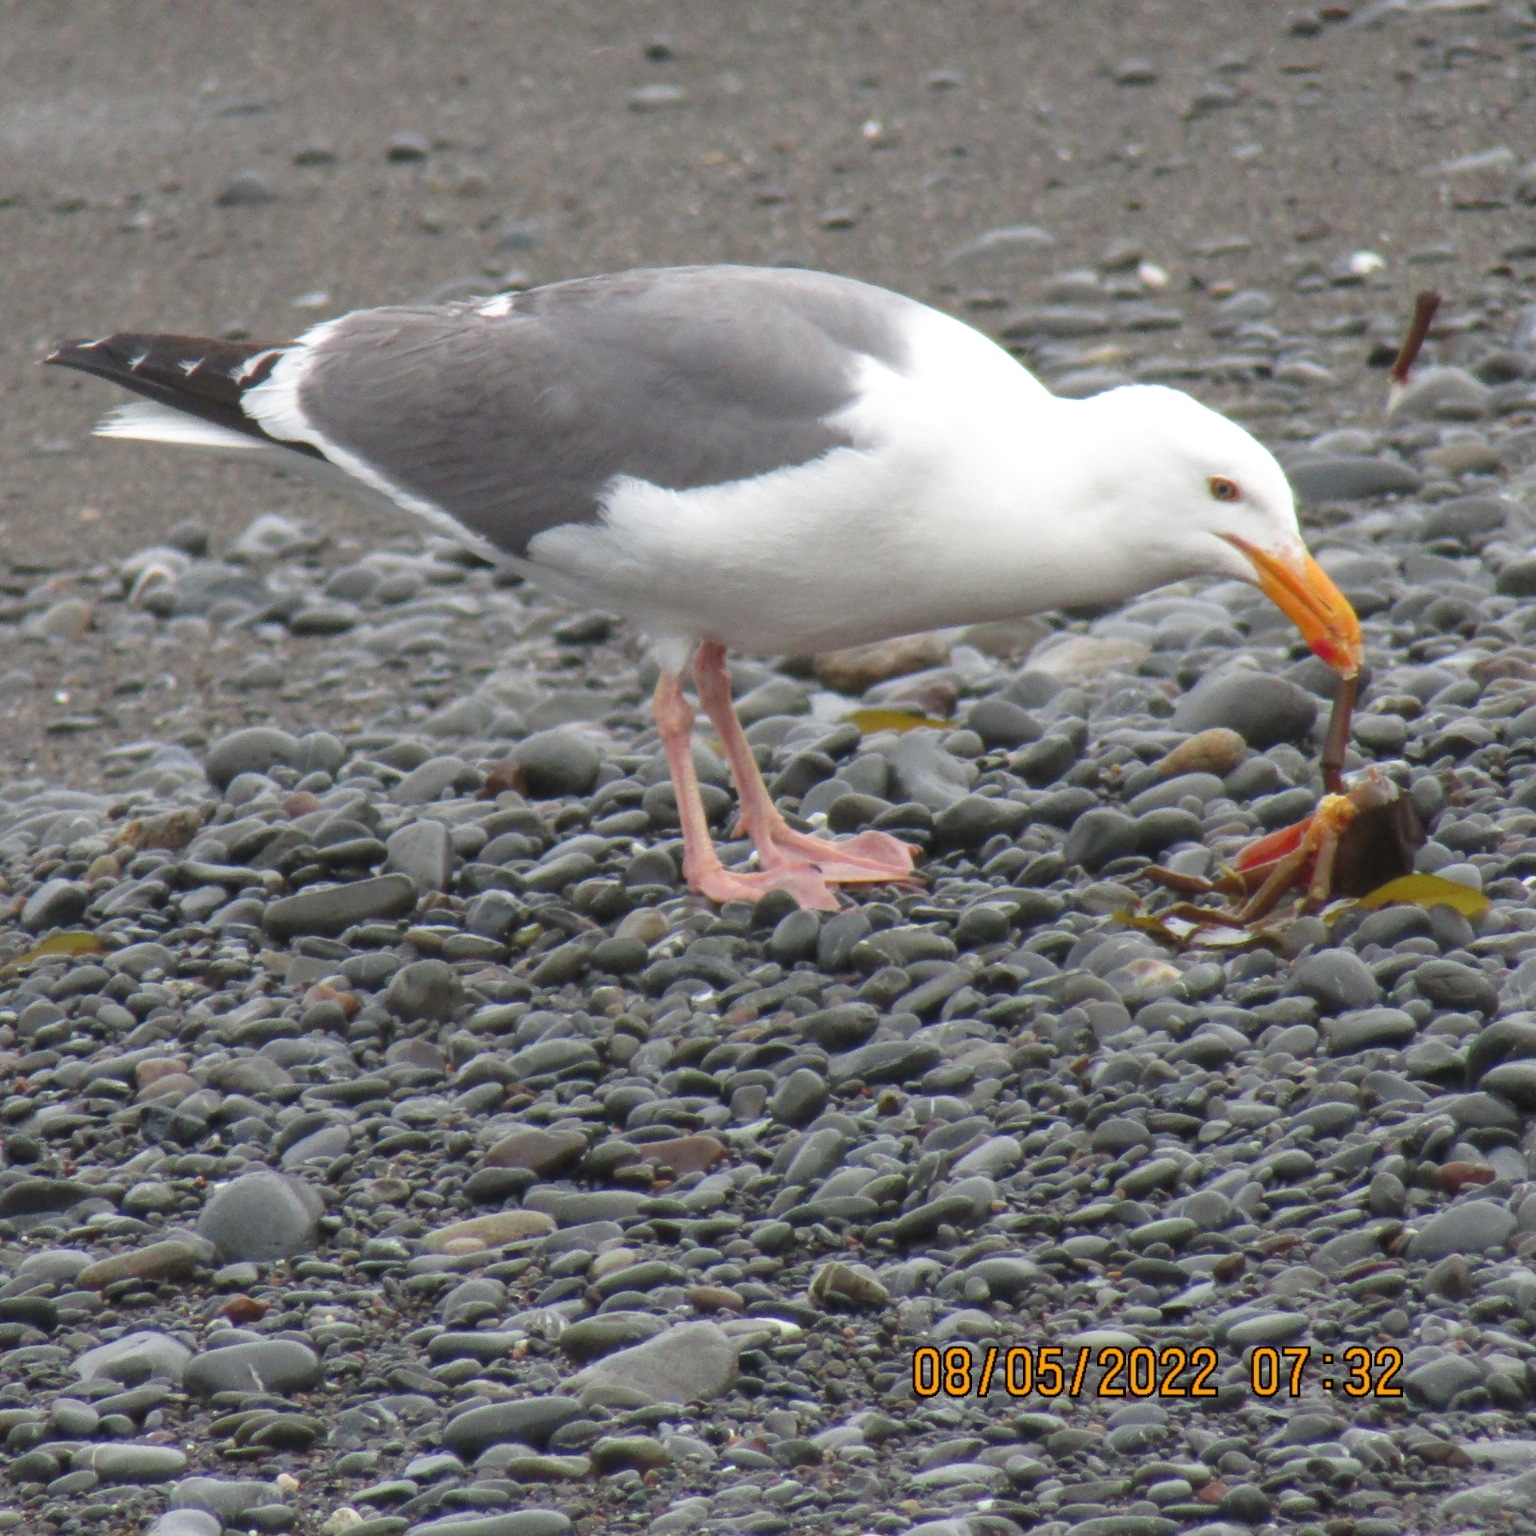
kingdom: Animalia
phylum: Chordata
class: Aves
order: Charadriiformes
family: Laridae
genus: Larus
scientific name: Larus occidentalis
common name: Western gull
